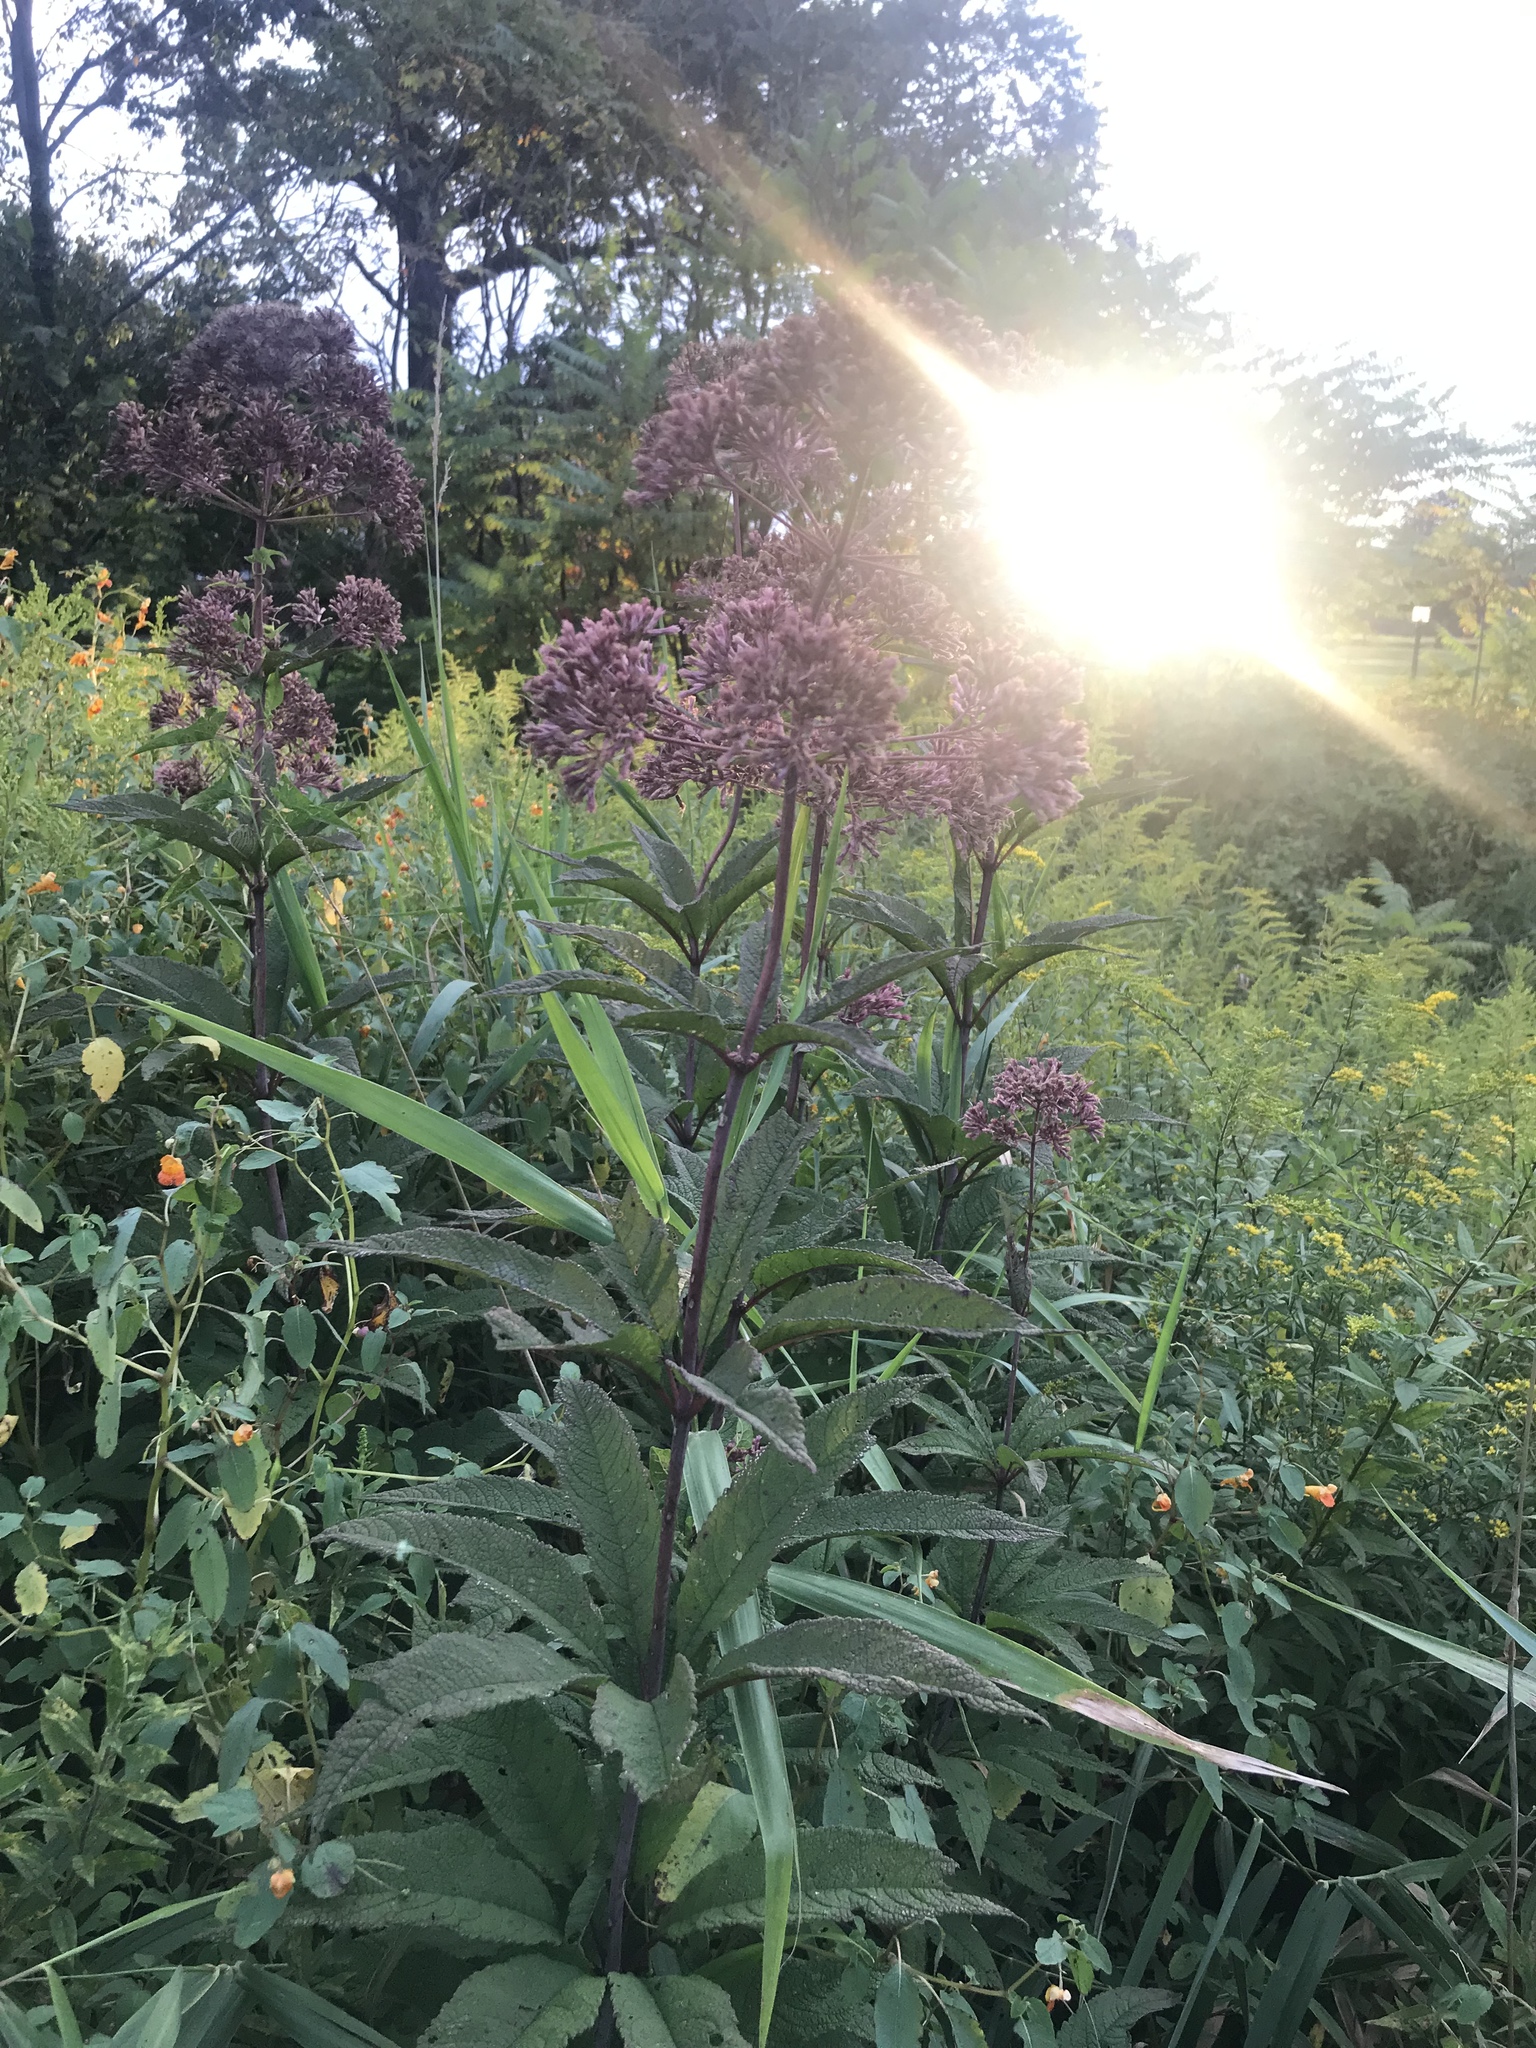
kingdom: Plantae
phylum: Tracheophyta
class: Magnoliopsida
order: Asterales
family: Asteraceae
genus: Eutrochium
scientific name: Eutrochium fistulosum
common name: Trumpetweed
